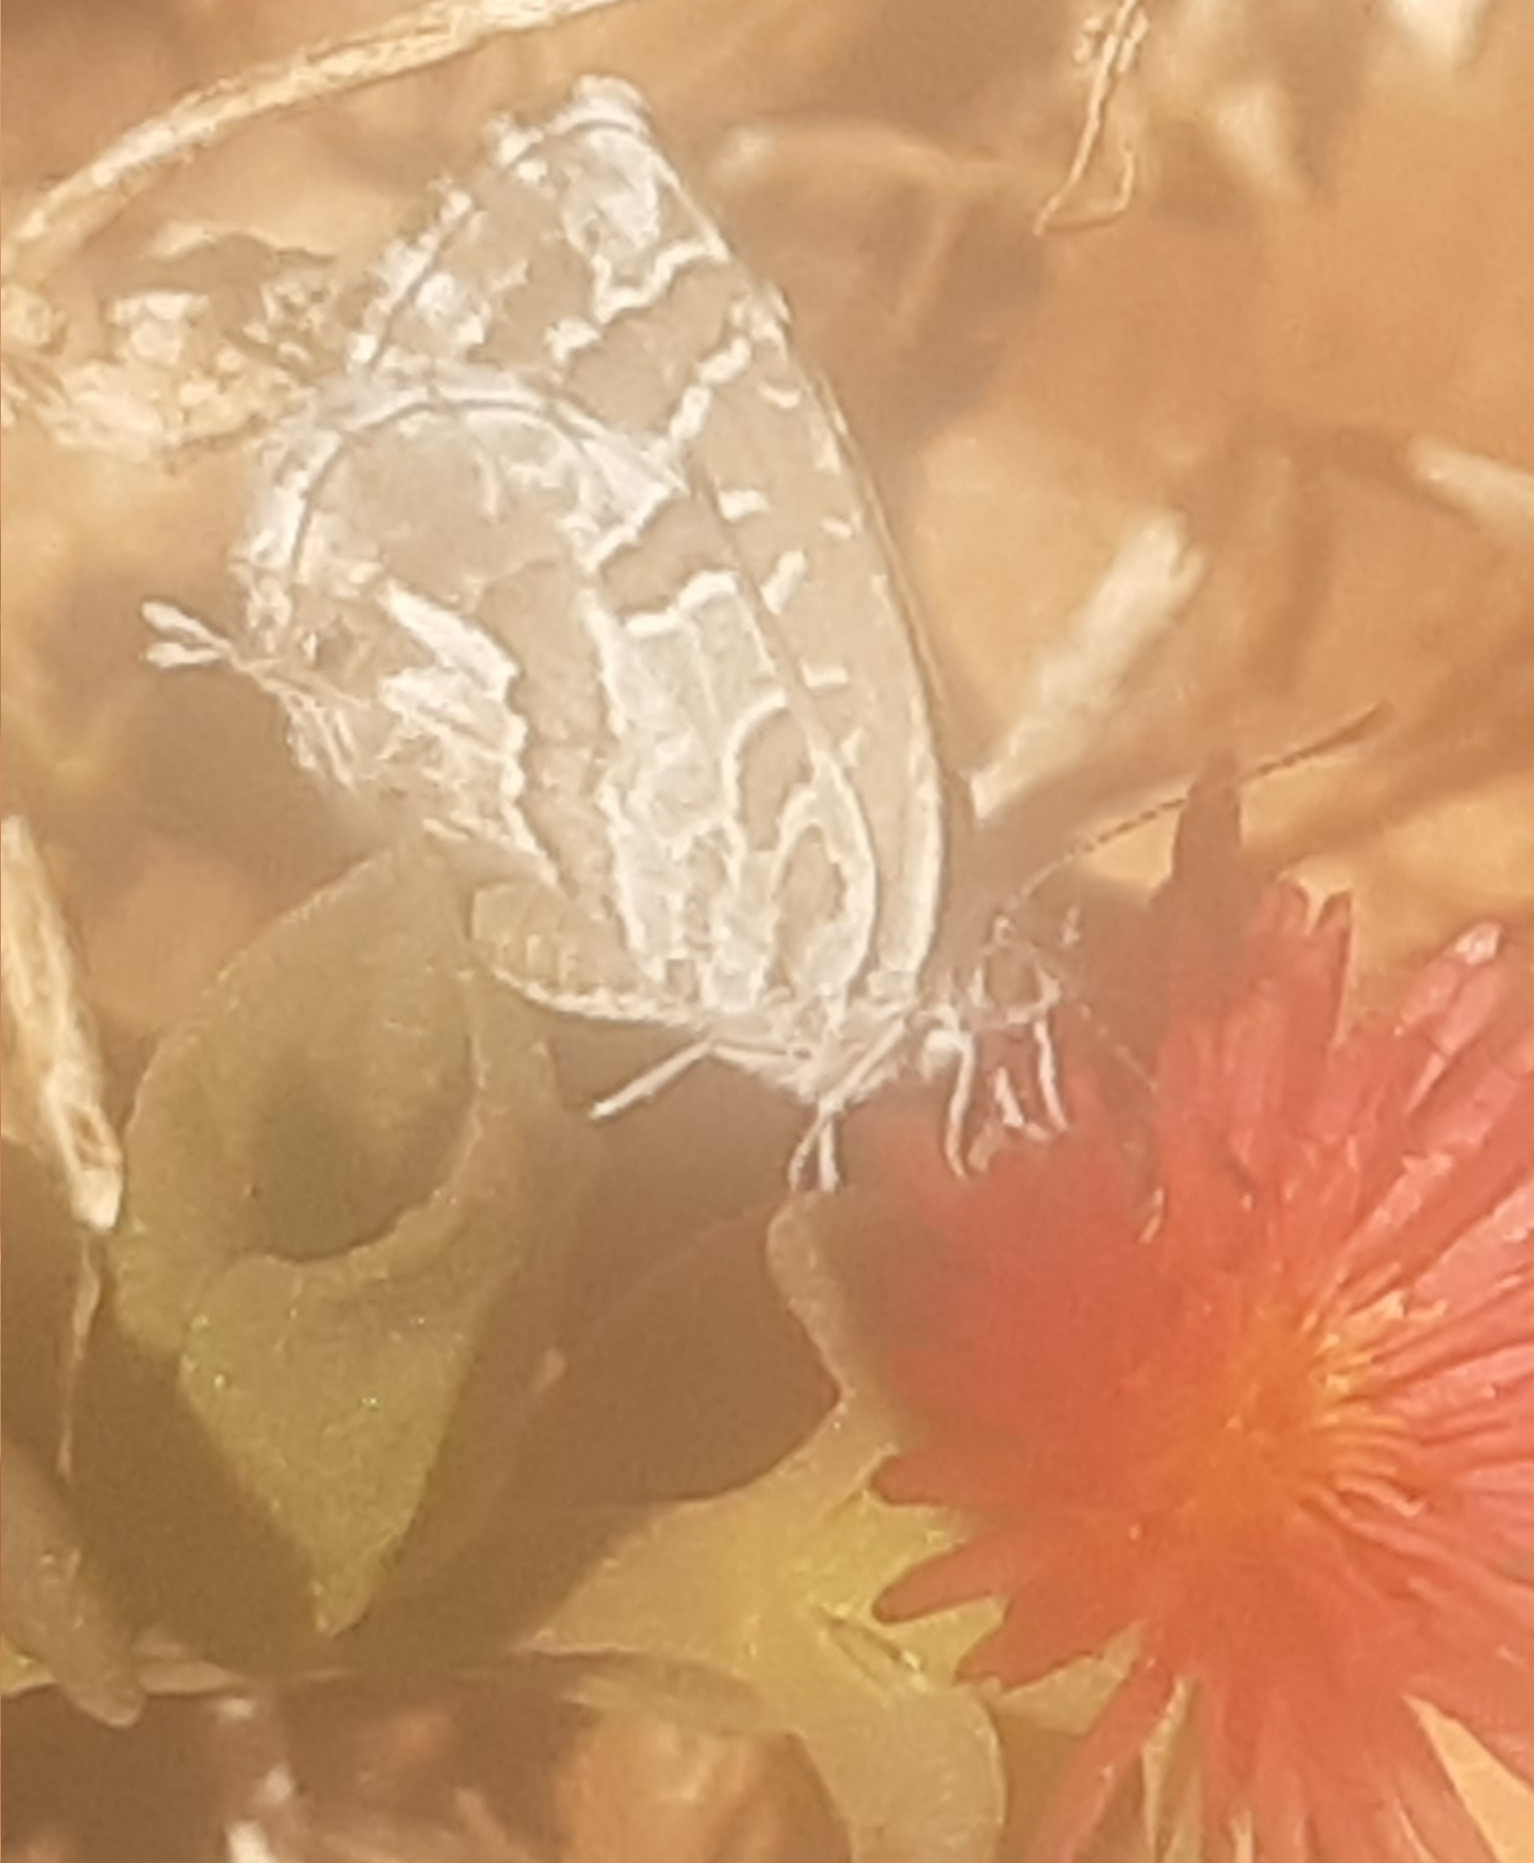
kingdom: Animalia
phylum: Arthropoda
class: Insecta
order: Lepidoptera
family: Lycaenidae
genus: Cacyreus
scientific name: Cacyreus marshalli
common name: Geranium bronze
